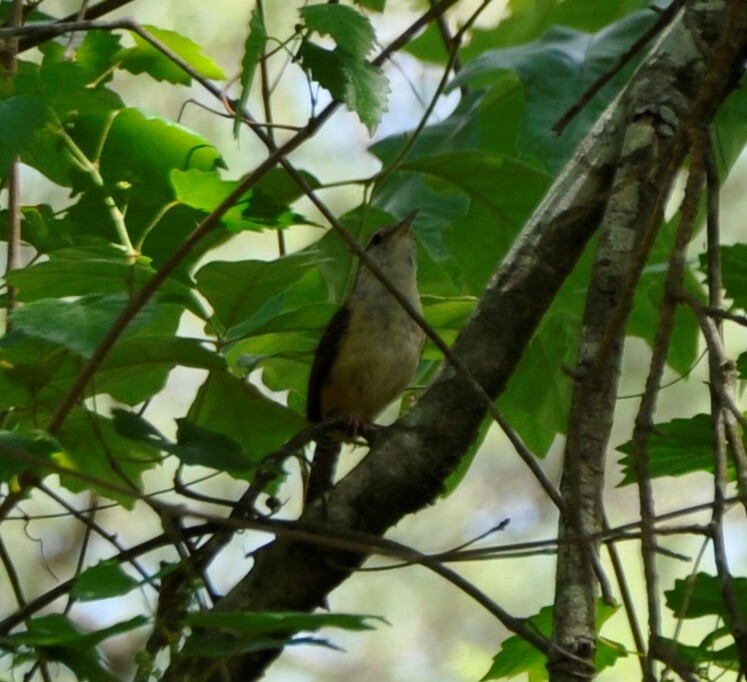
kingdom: Animalia
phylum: Chordata
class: Aves
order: Passeriformes
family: Troglodytidae
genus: Thryothorus
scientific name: Thryothorus ludovicianus
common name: Carolina wren
